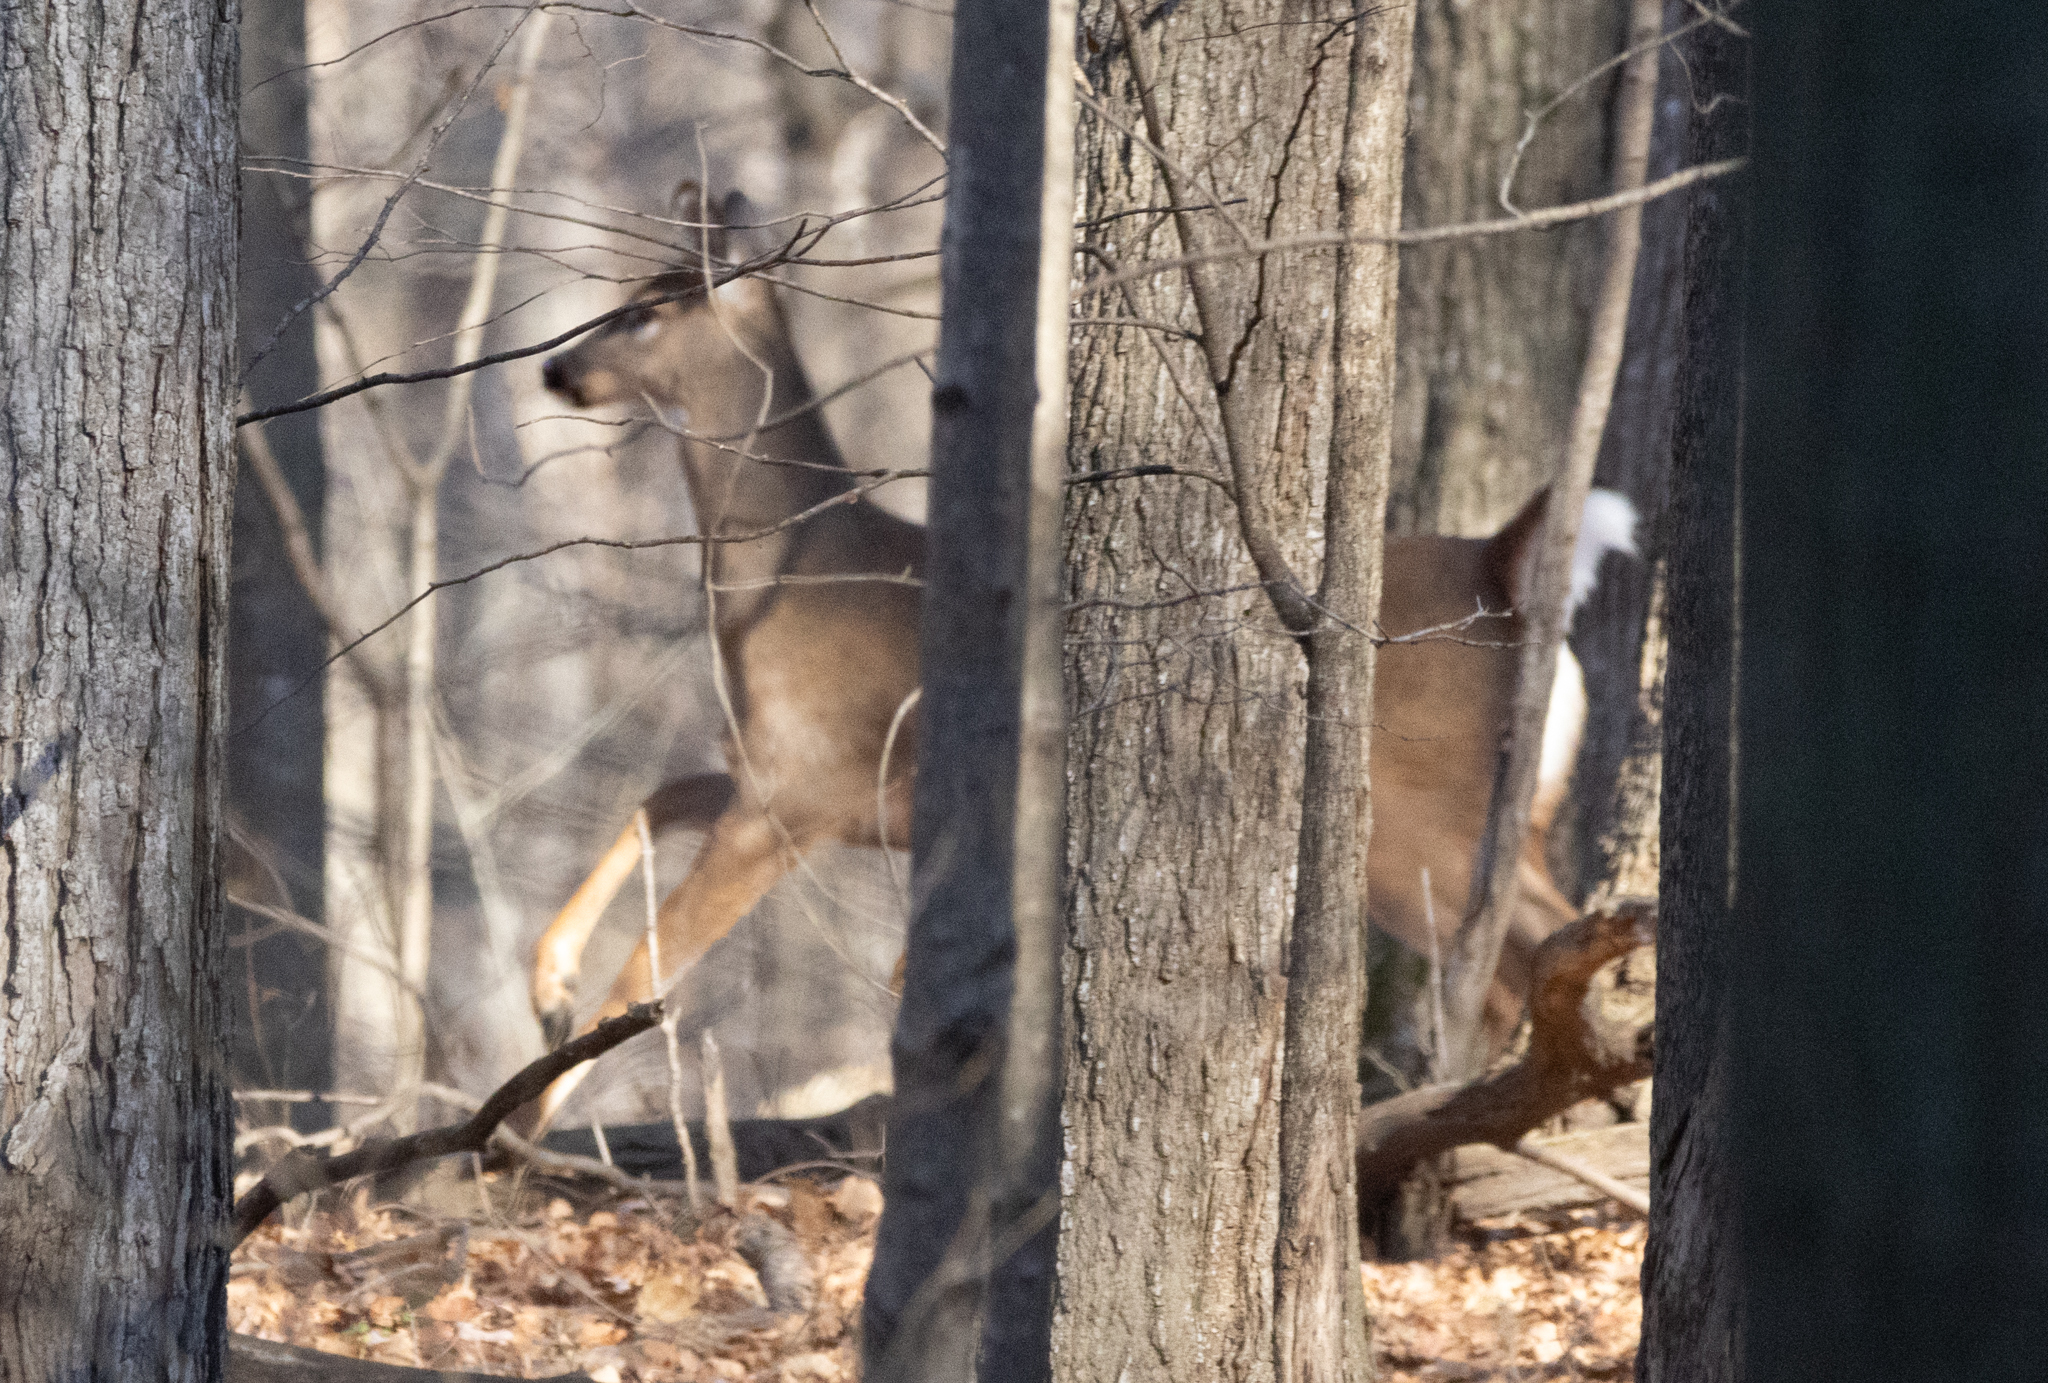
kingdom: Animalia
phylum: Chordata
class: Mammalia
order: Artiodactyla
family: Cervidae
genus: Odocoileus
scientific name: Odocoileus virginianus
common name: White-tailed deer
